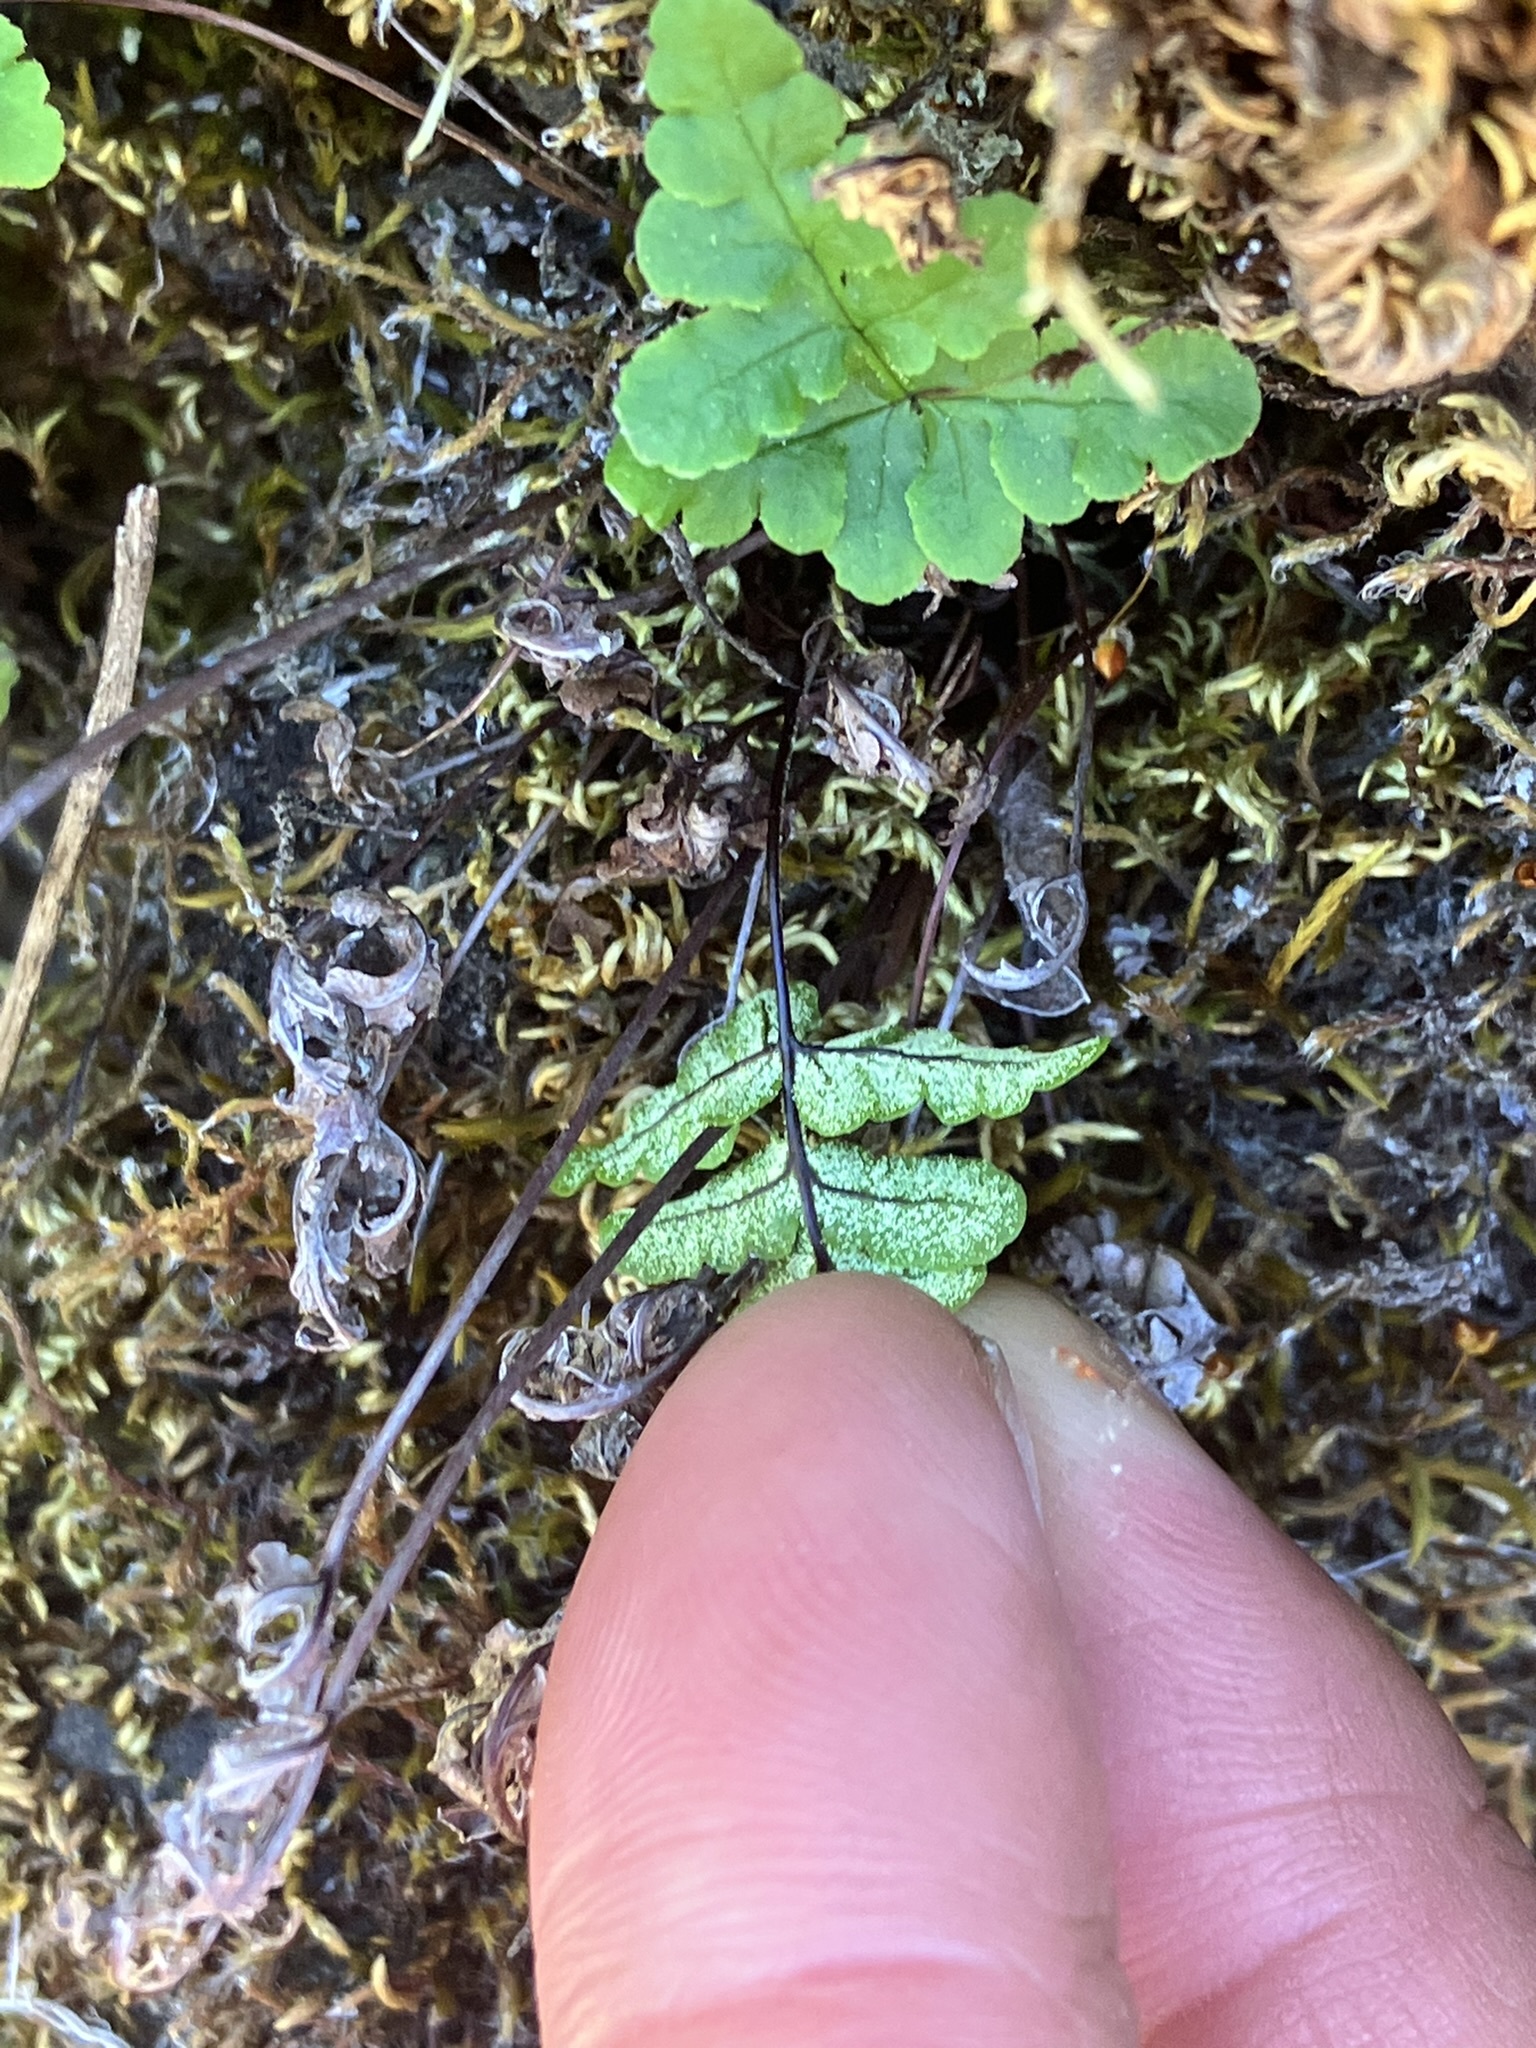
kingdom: Plantae
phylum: Tracheophyta
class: Polypodiopsida
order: Polypodiales
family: Pteridaceae
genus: Pentagramma
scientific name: Pentagramma triangularis
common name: Gold fern
